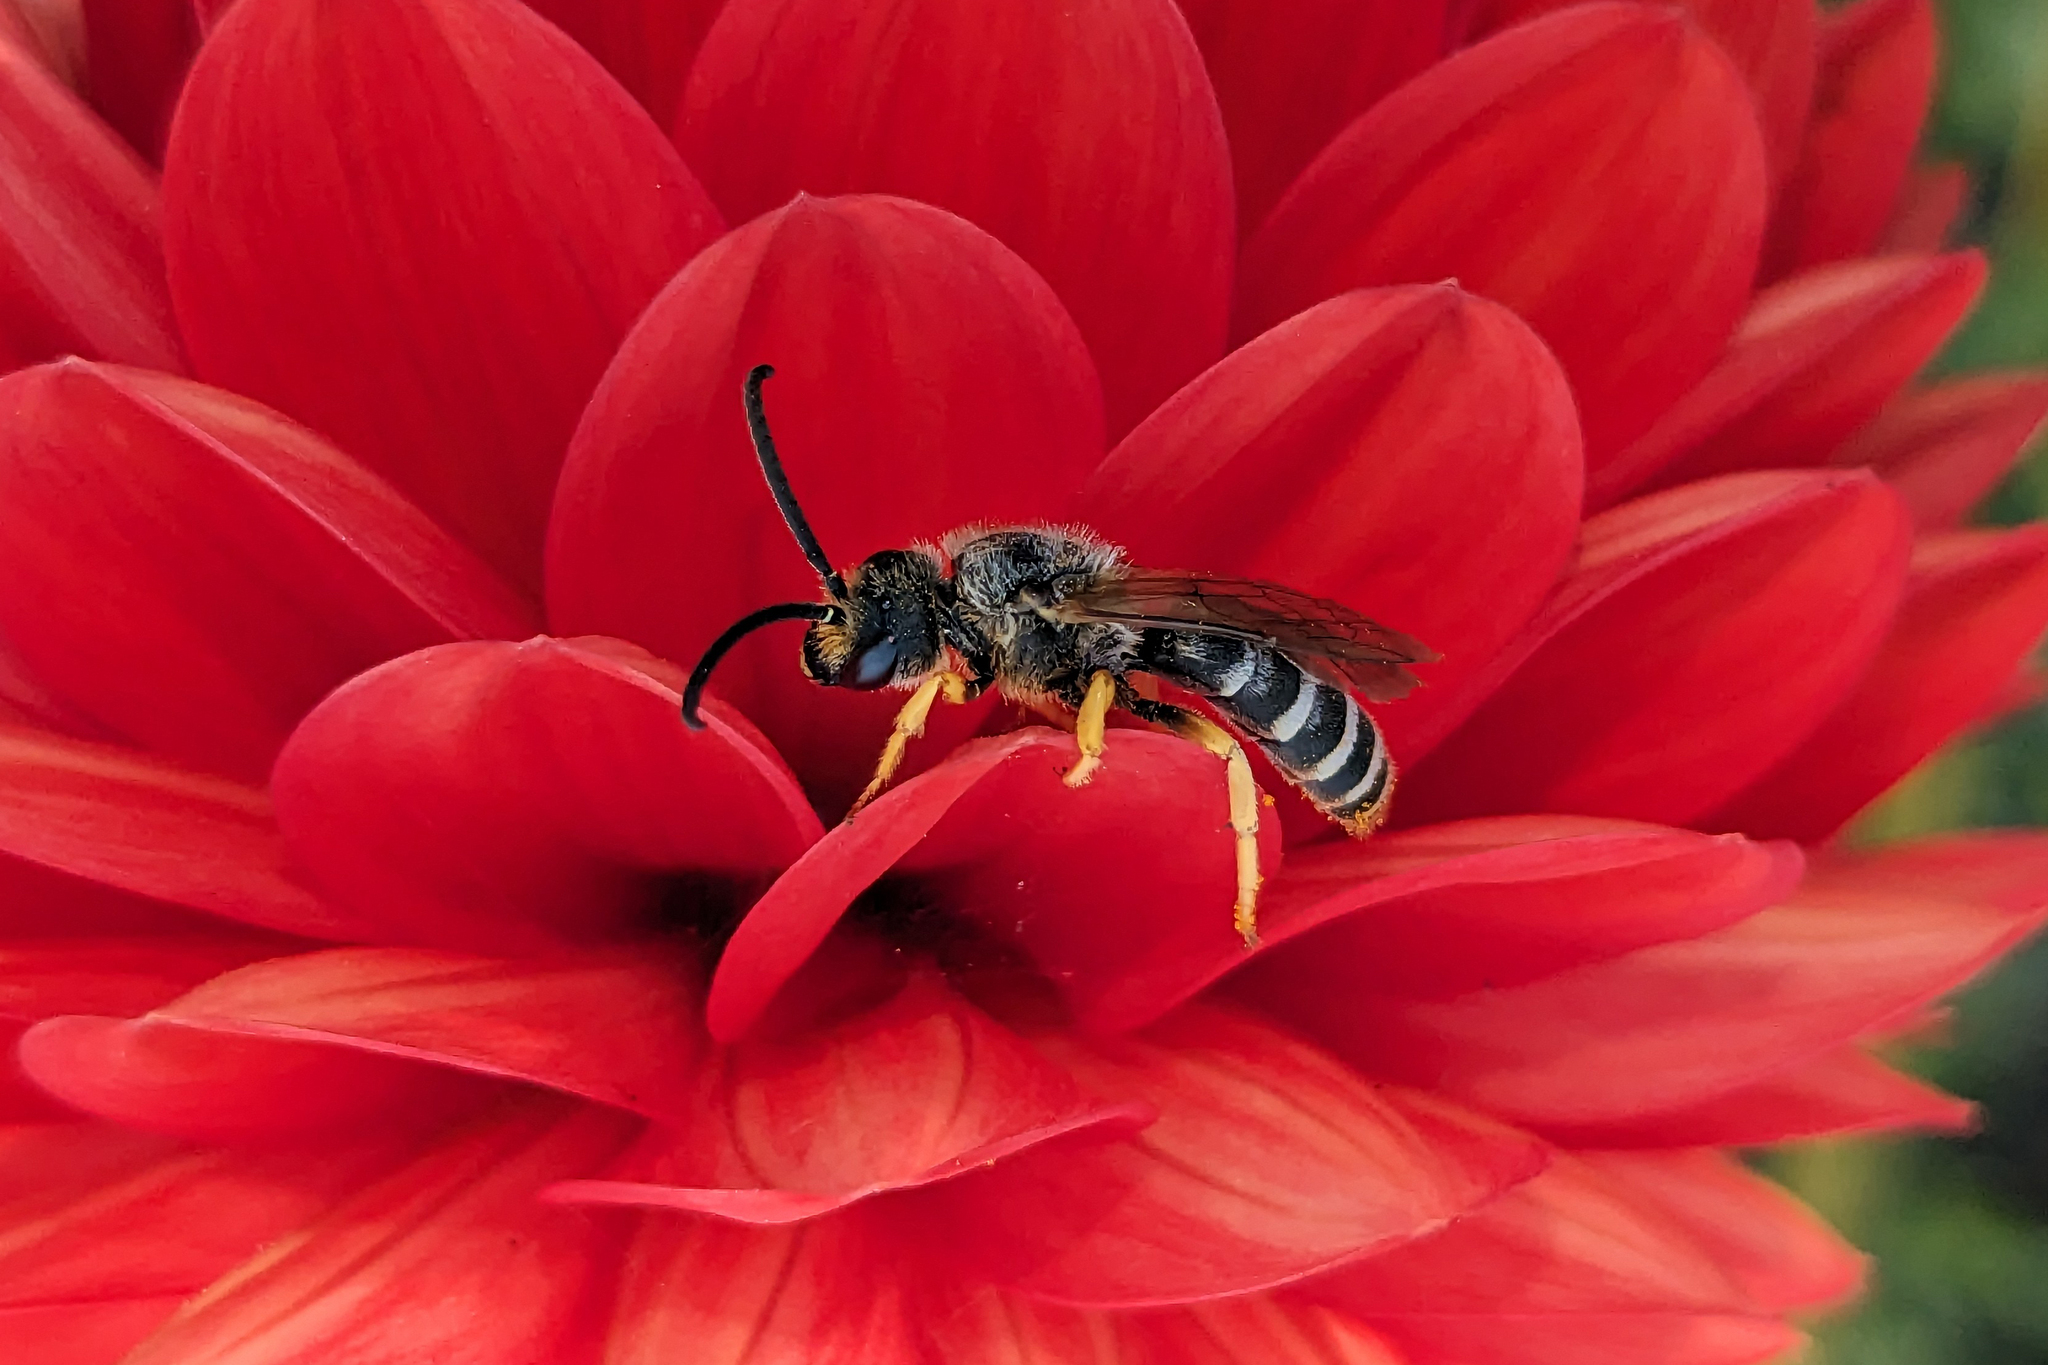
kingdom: Animalia
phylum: Arthropoda
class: Insecta
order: Hymenoptera
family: Halictidae
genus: Halictus
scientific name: Halictus scabiosae
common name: Great banded furrow bee
